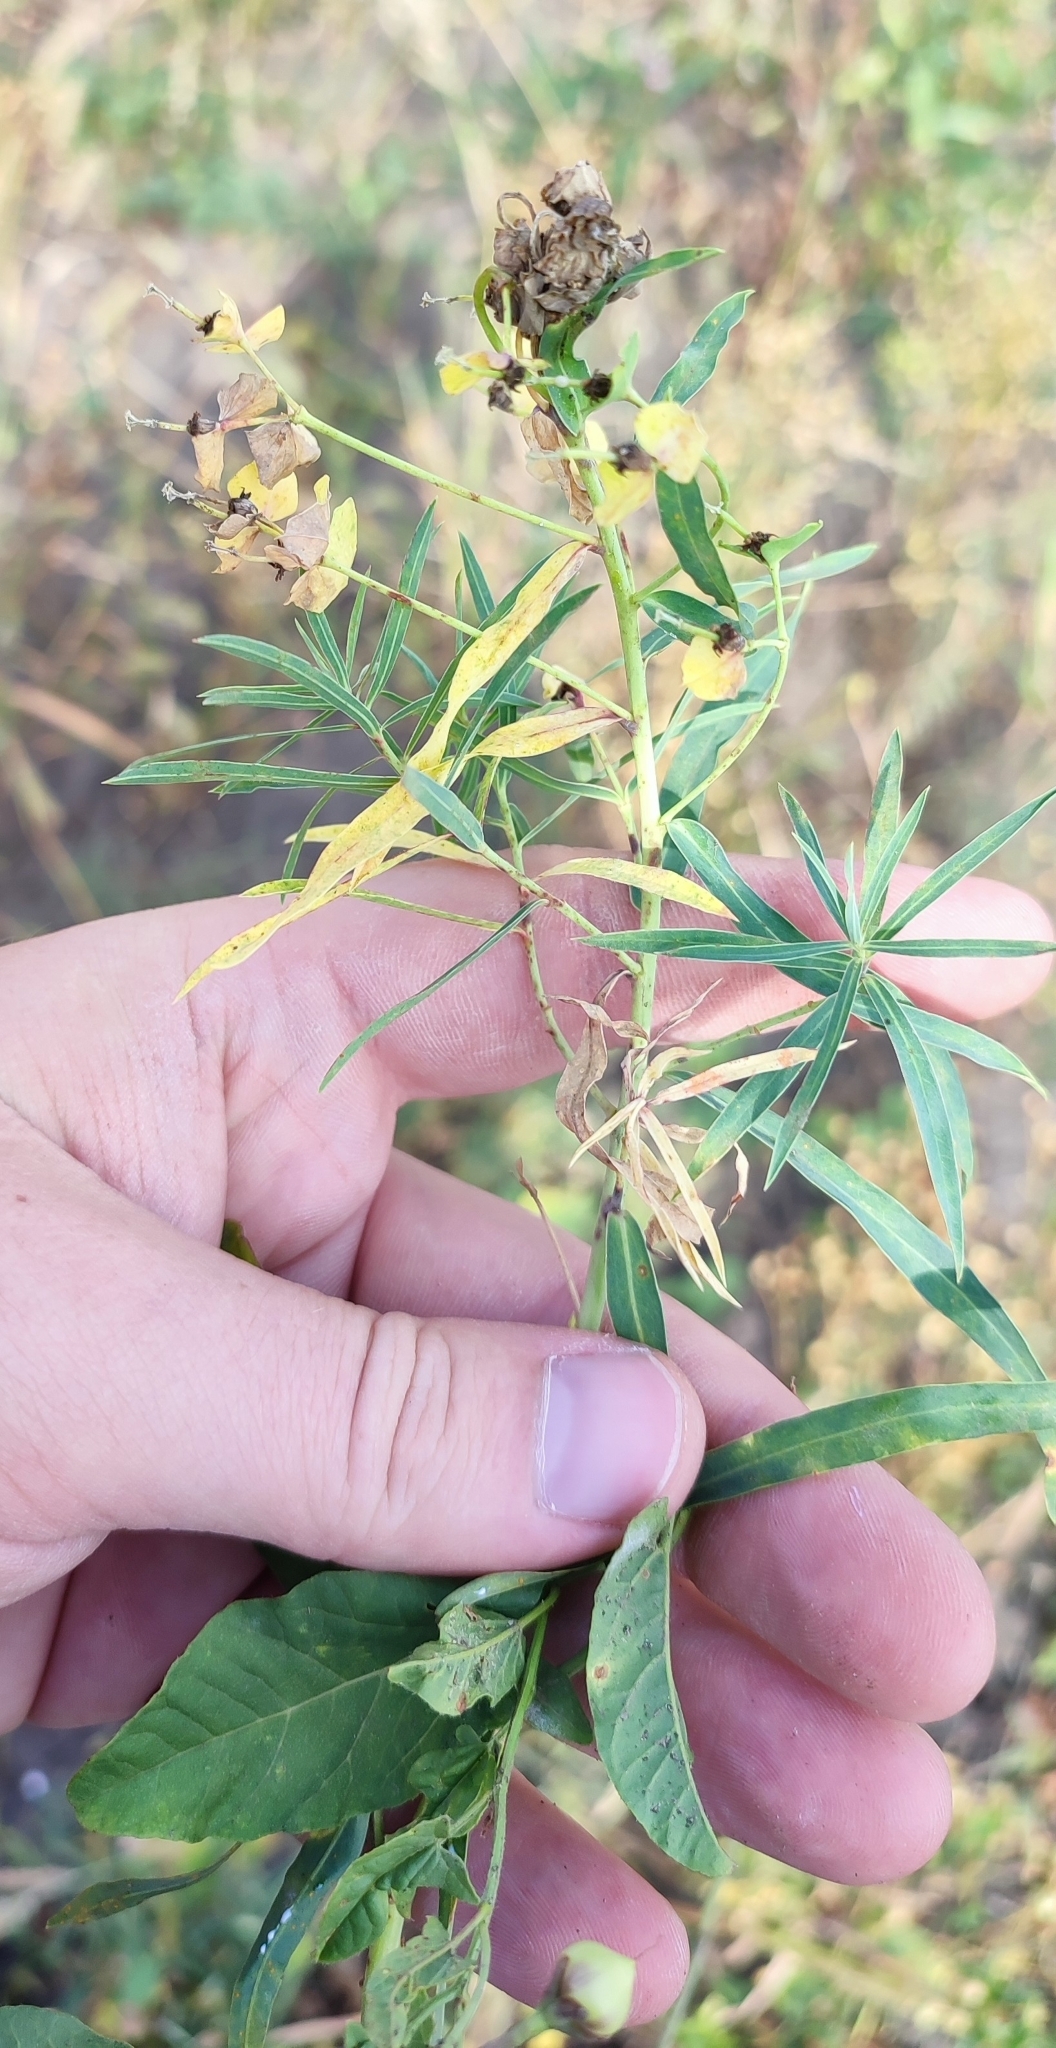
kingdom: Plantae
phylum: Tracheophyta
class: Magnoliopsida
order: Malpighiales
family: Euphorbiaceae
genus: Euphorbia
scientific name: Euphorbia virgata
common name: Leafy spurge
